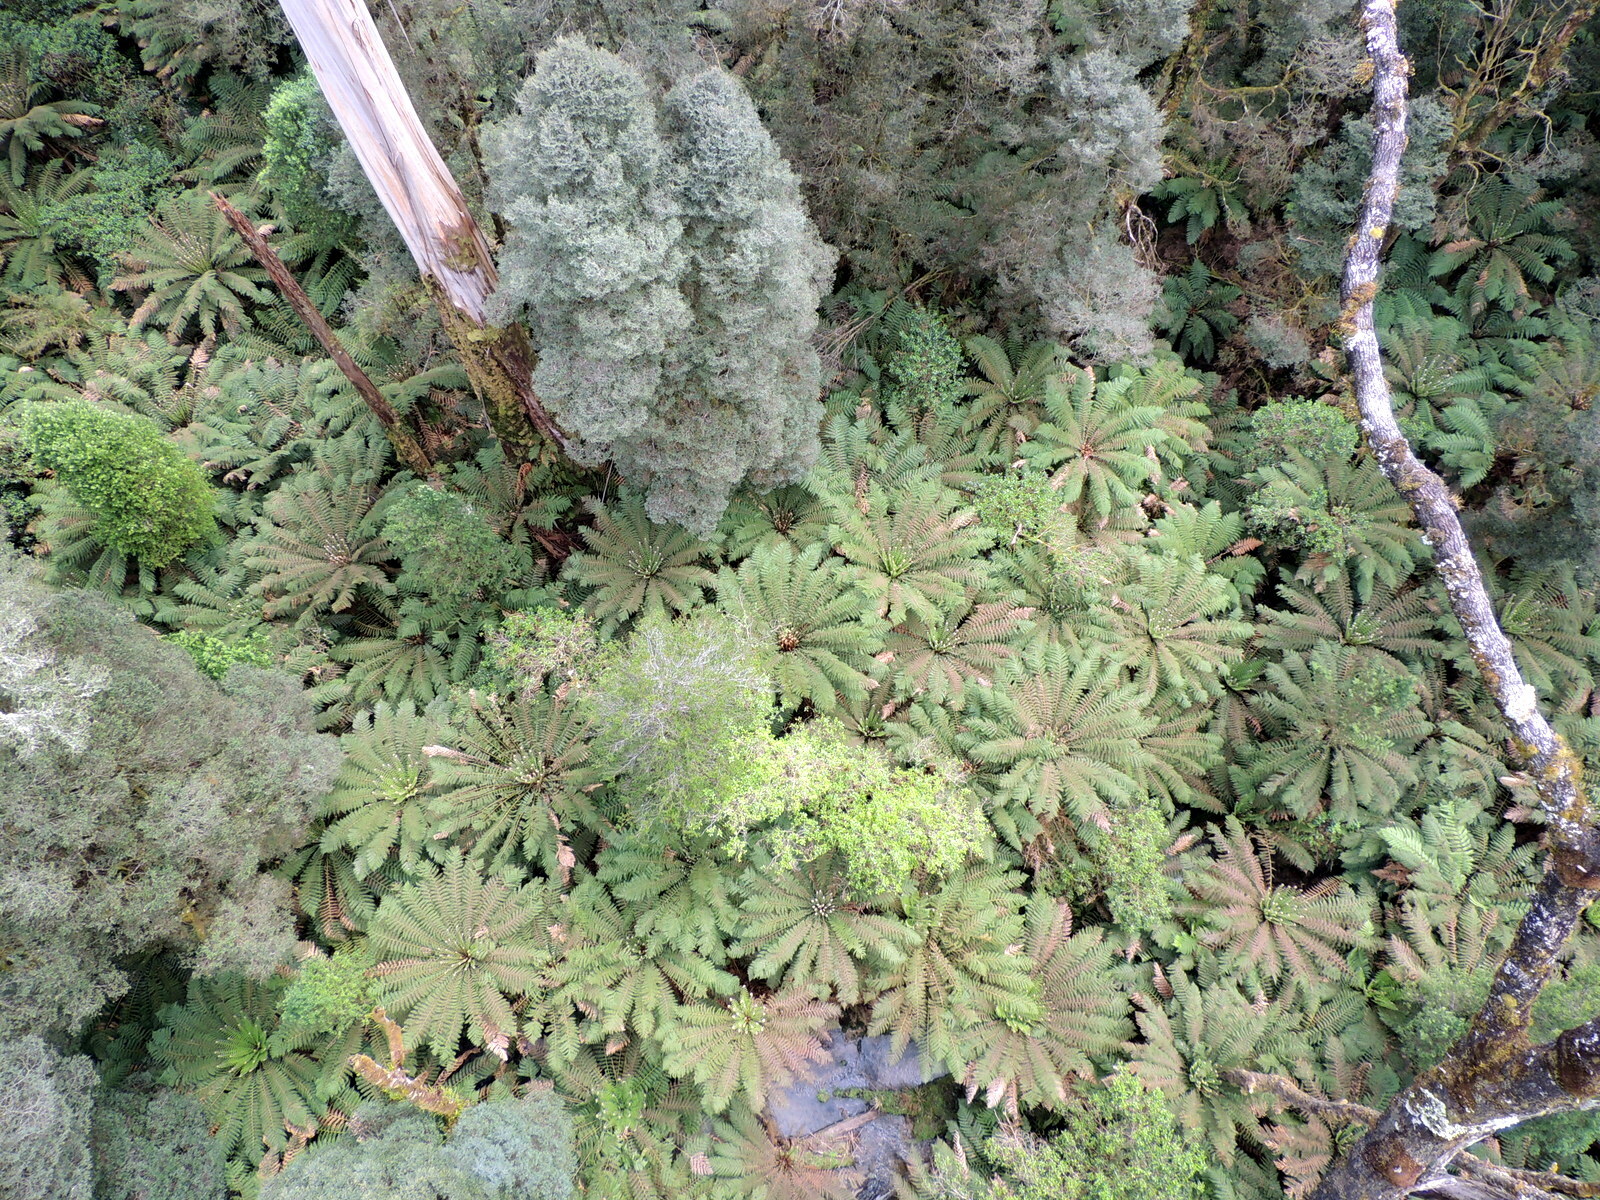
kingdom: Plantae
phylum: Tracheophyta
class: Polypodiopsida
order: Cyatheales
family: Dicksoniaceae
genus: Dicksonia
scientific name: Dicksonia antarctica
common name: Australian treefern
